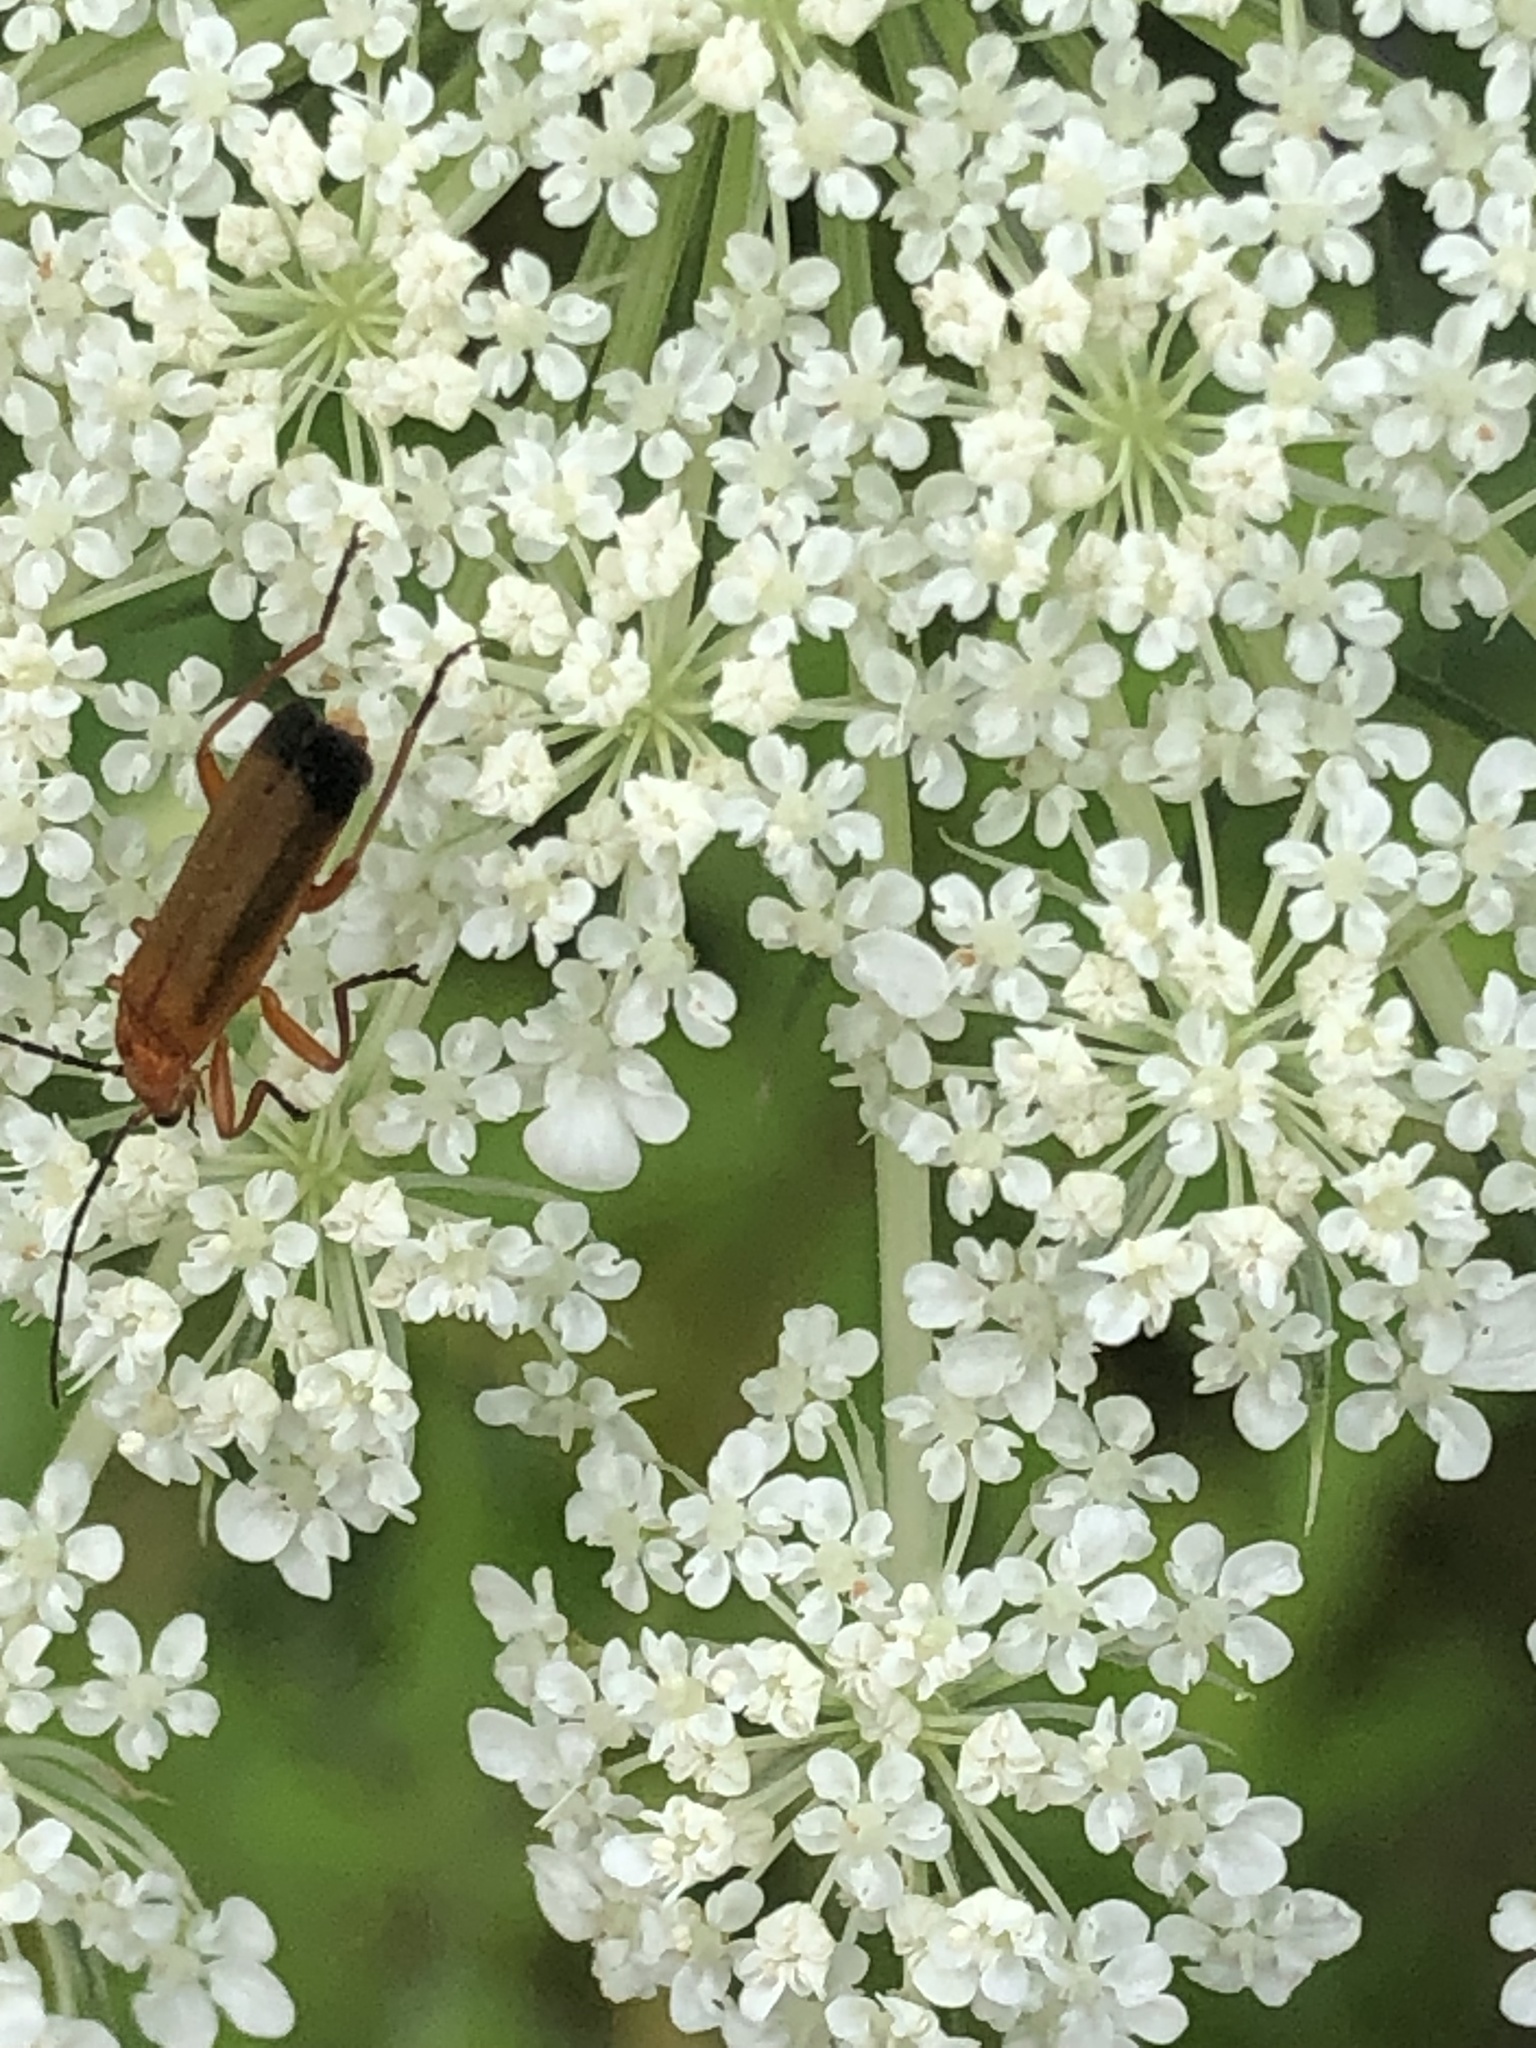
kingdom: Animalia
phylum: Arthropoda
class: Insecta
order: Coleoptera
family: Cantharidae
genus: Rhagonycha
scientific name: Rhagonycha fulva
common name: Common red soldier beetle
